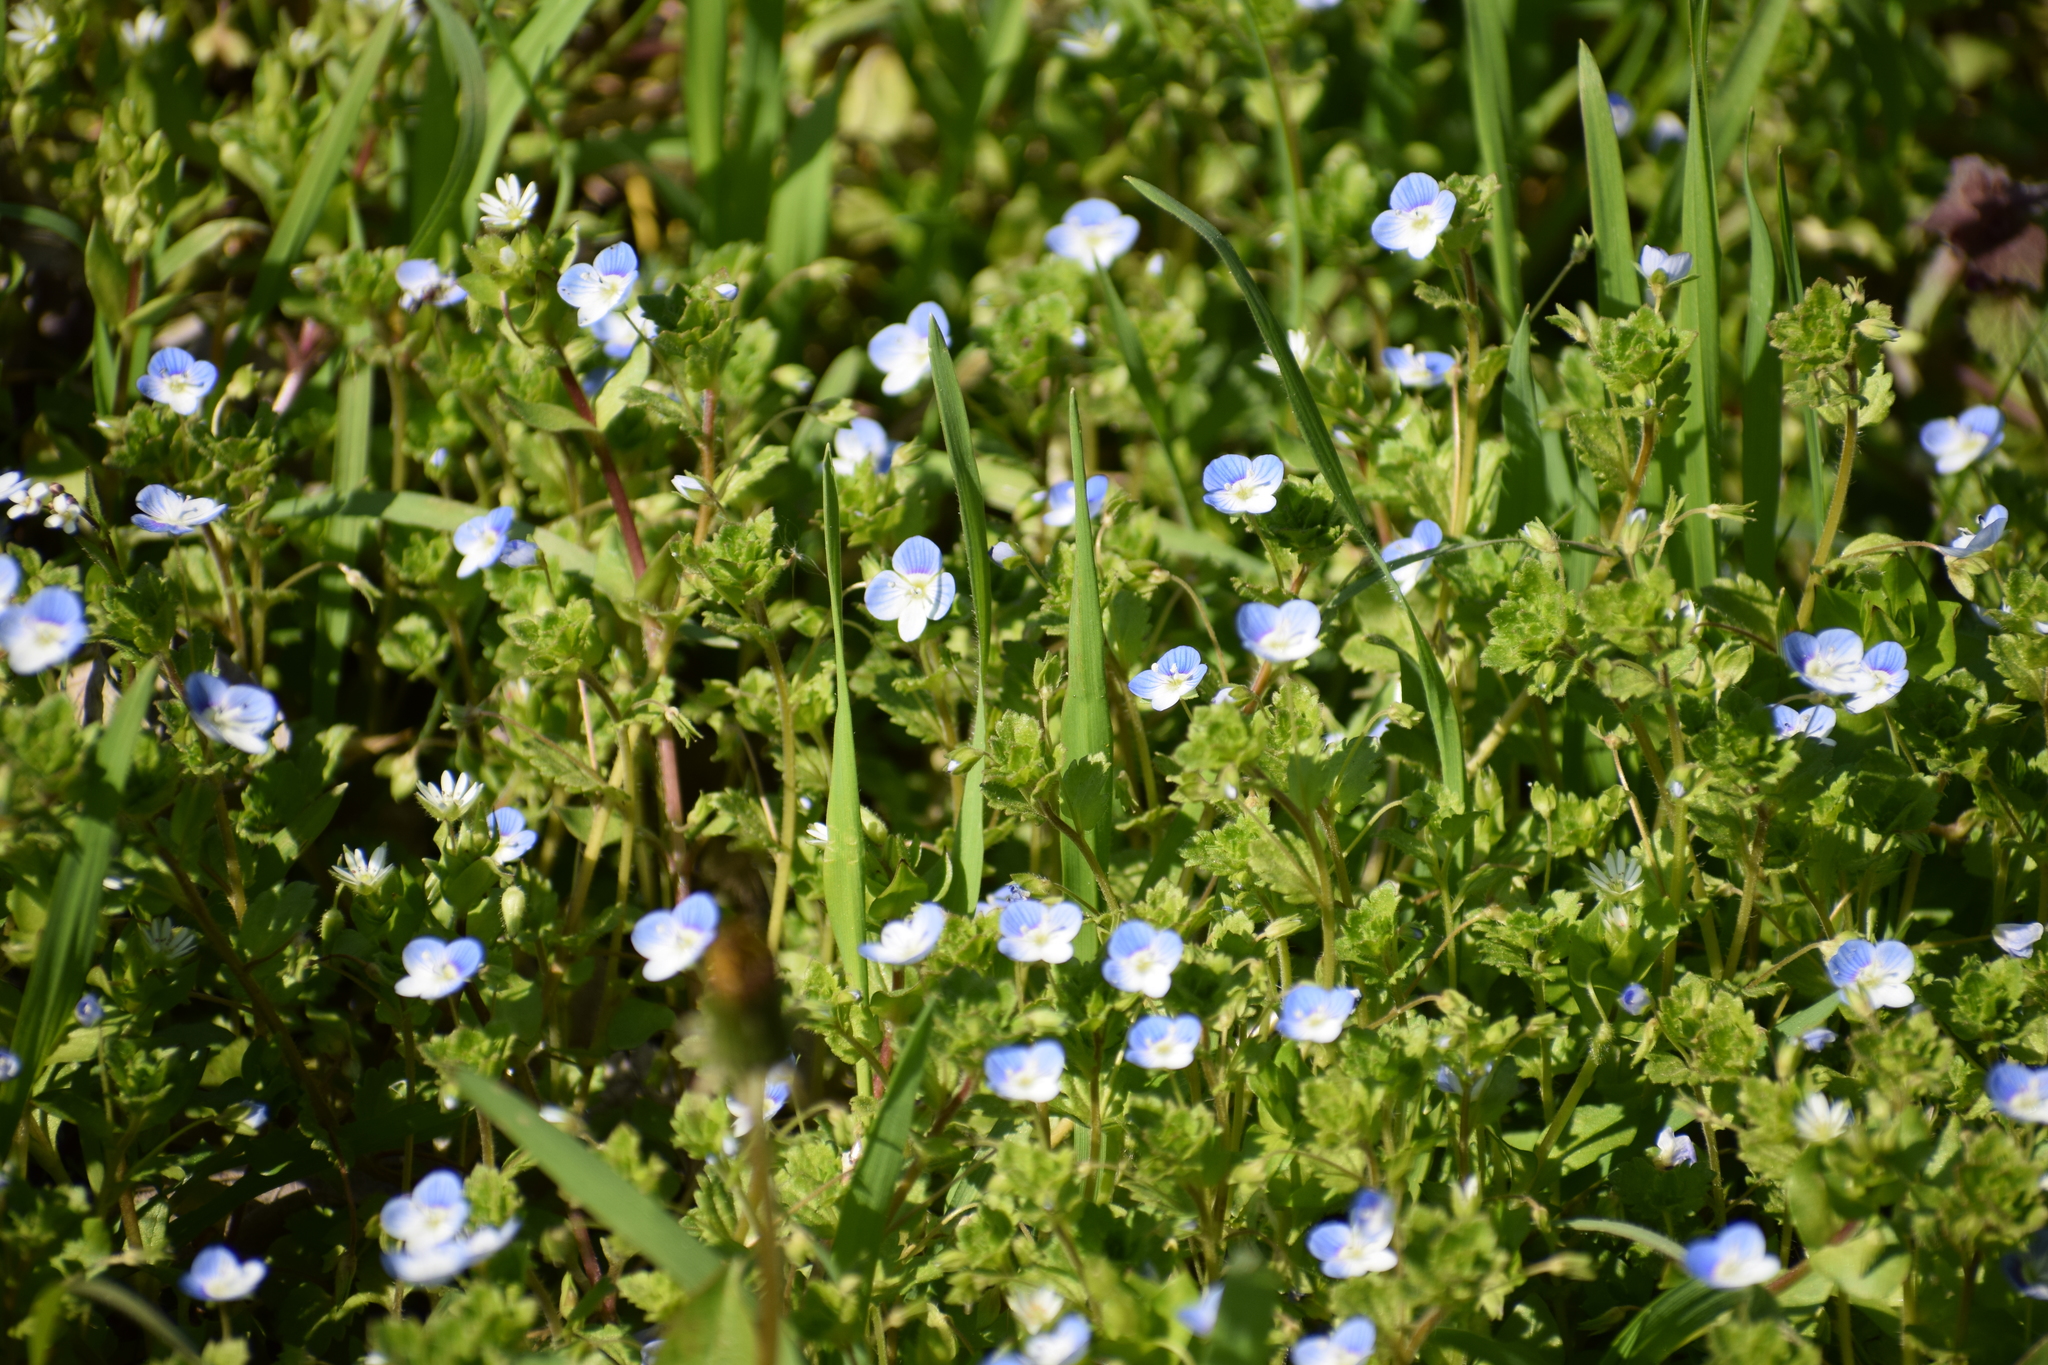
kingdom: Plantae
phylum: Tracheophyta
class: Magnoliopsida
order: Lamiales
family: Plantaginaceae
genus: Veronica
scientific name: Veronica persica
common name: Common field-speedwell
